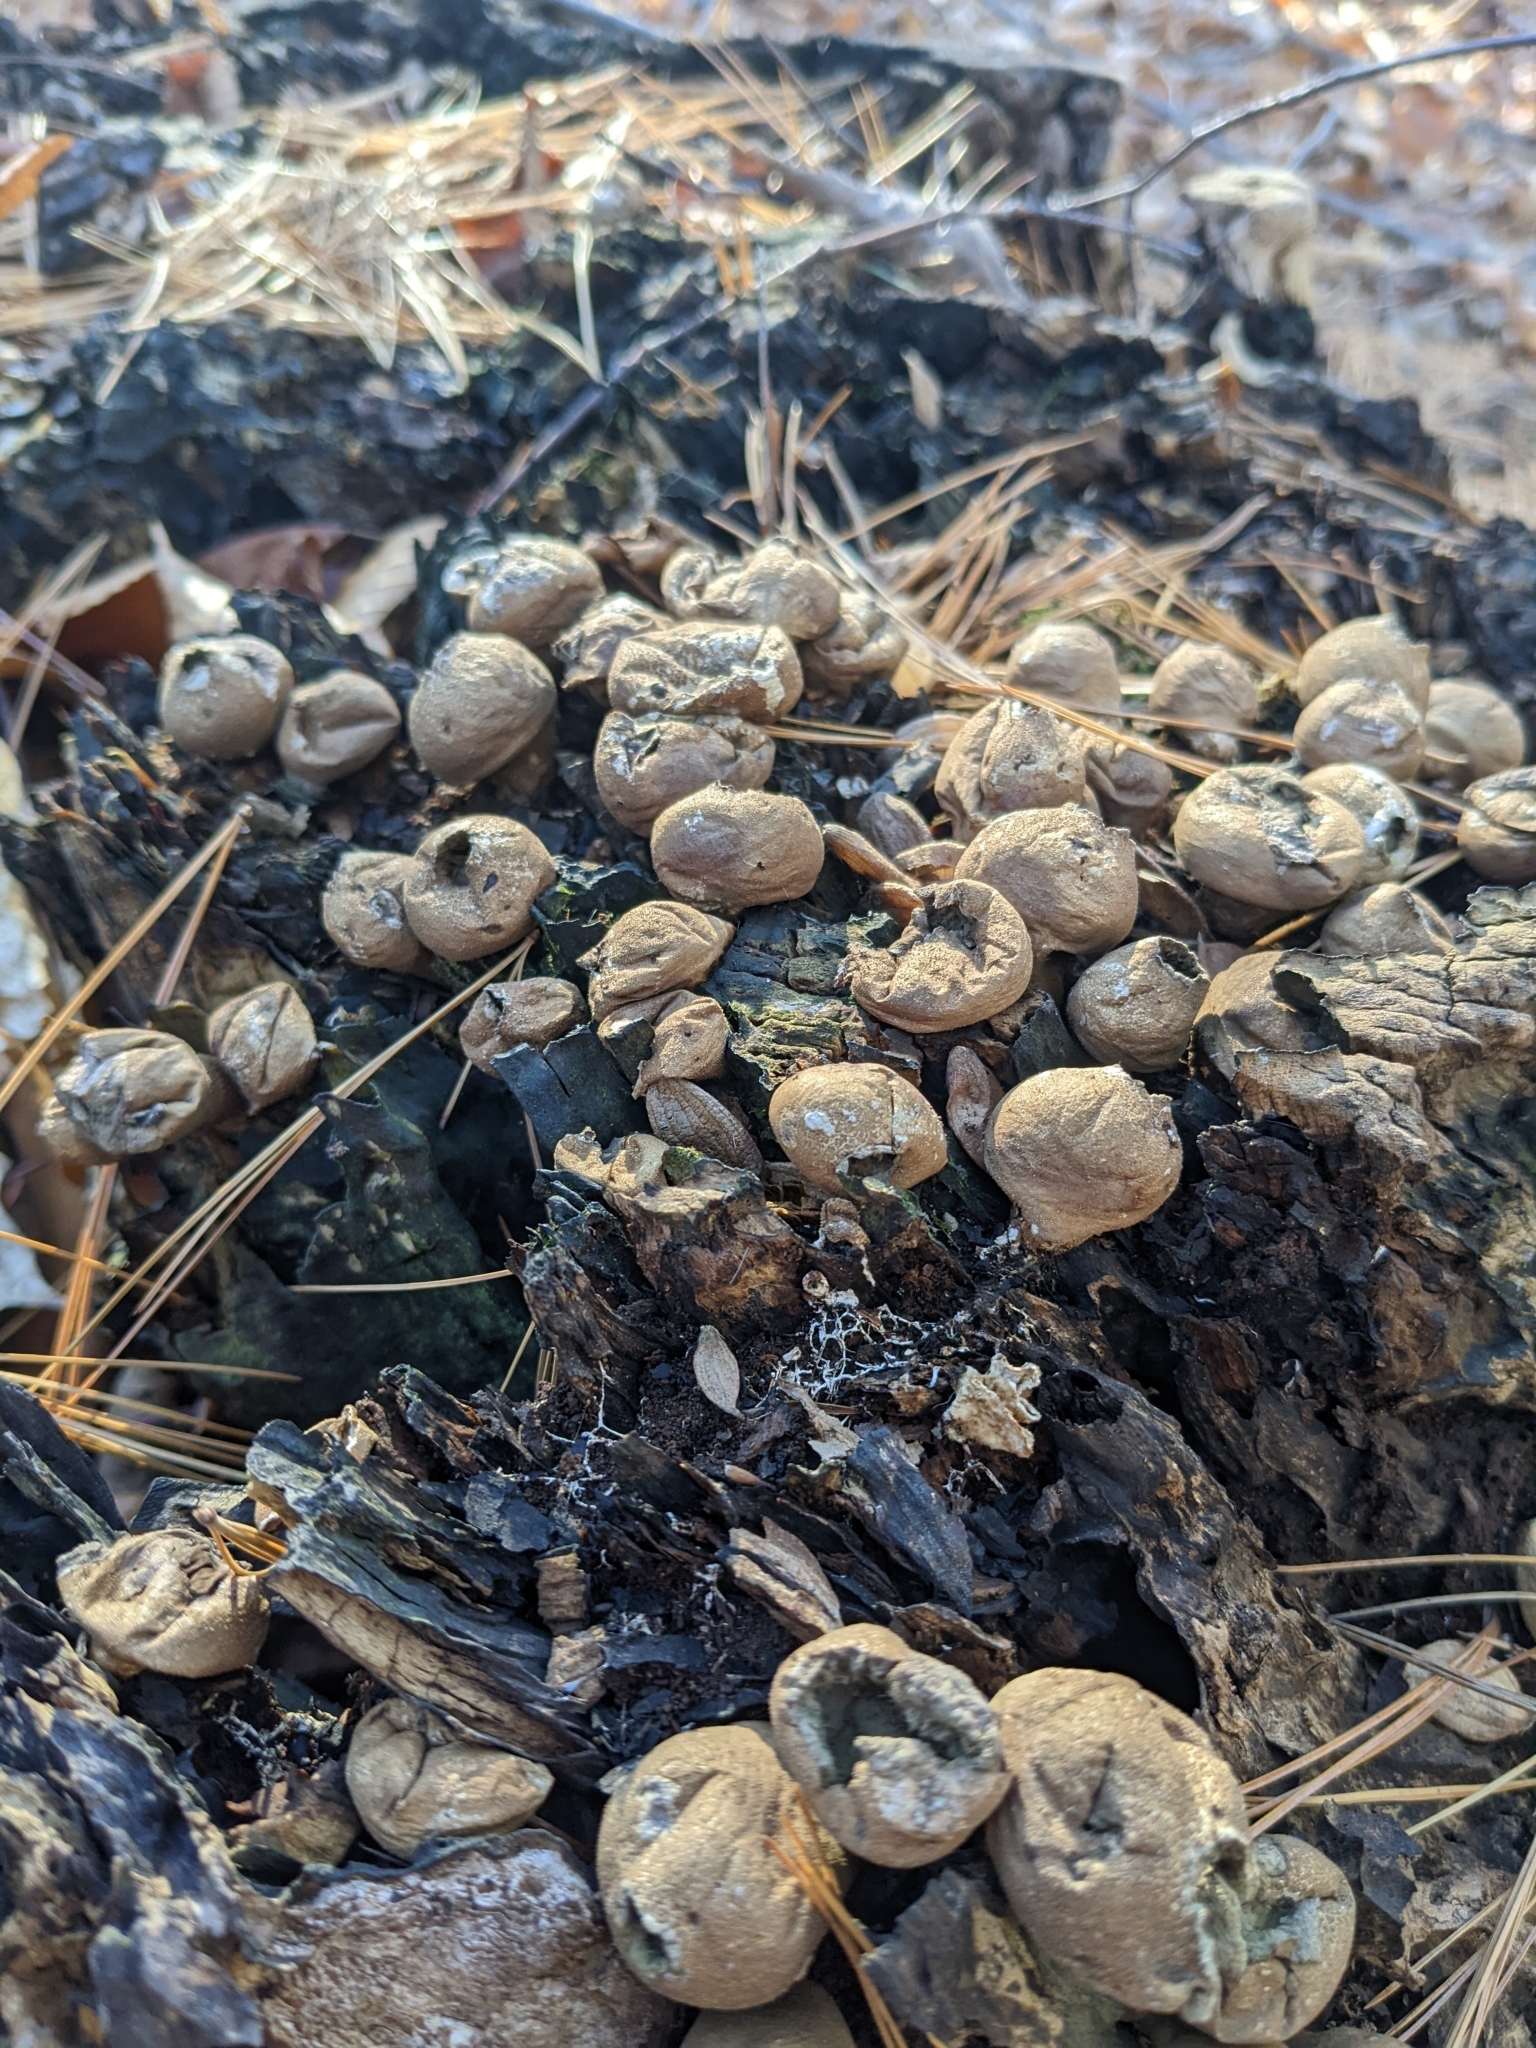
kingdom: Fungi
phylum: Basidiomycota
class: Agaricomycetes
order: Agaricales
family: Lycoperdaceae
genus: Apioperdon
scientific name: Apioperdon pyriforme
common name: Pear-shaped puffball
